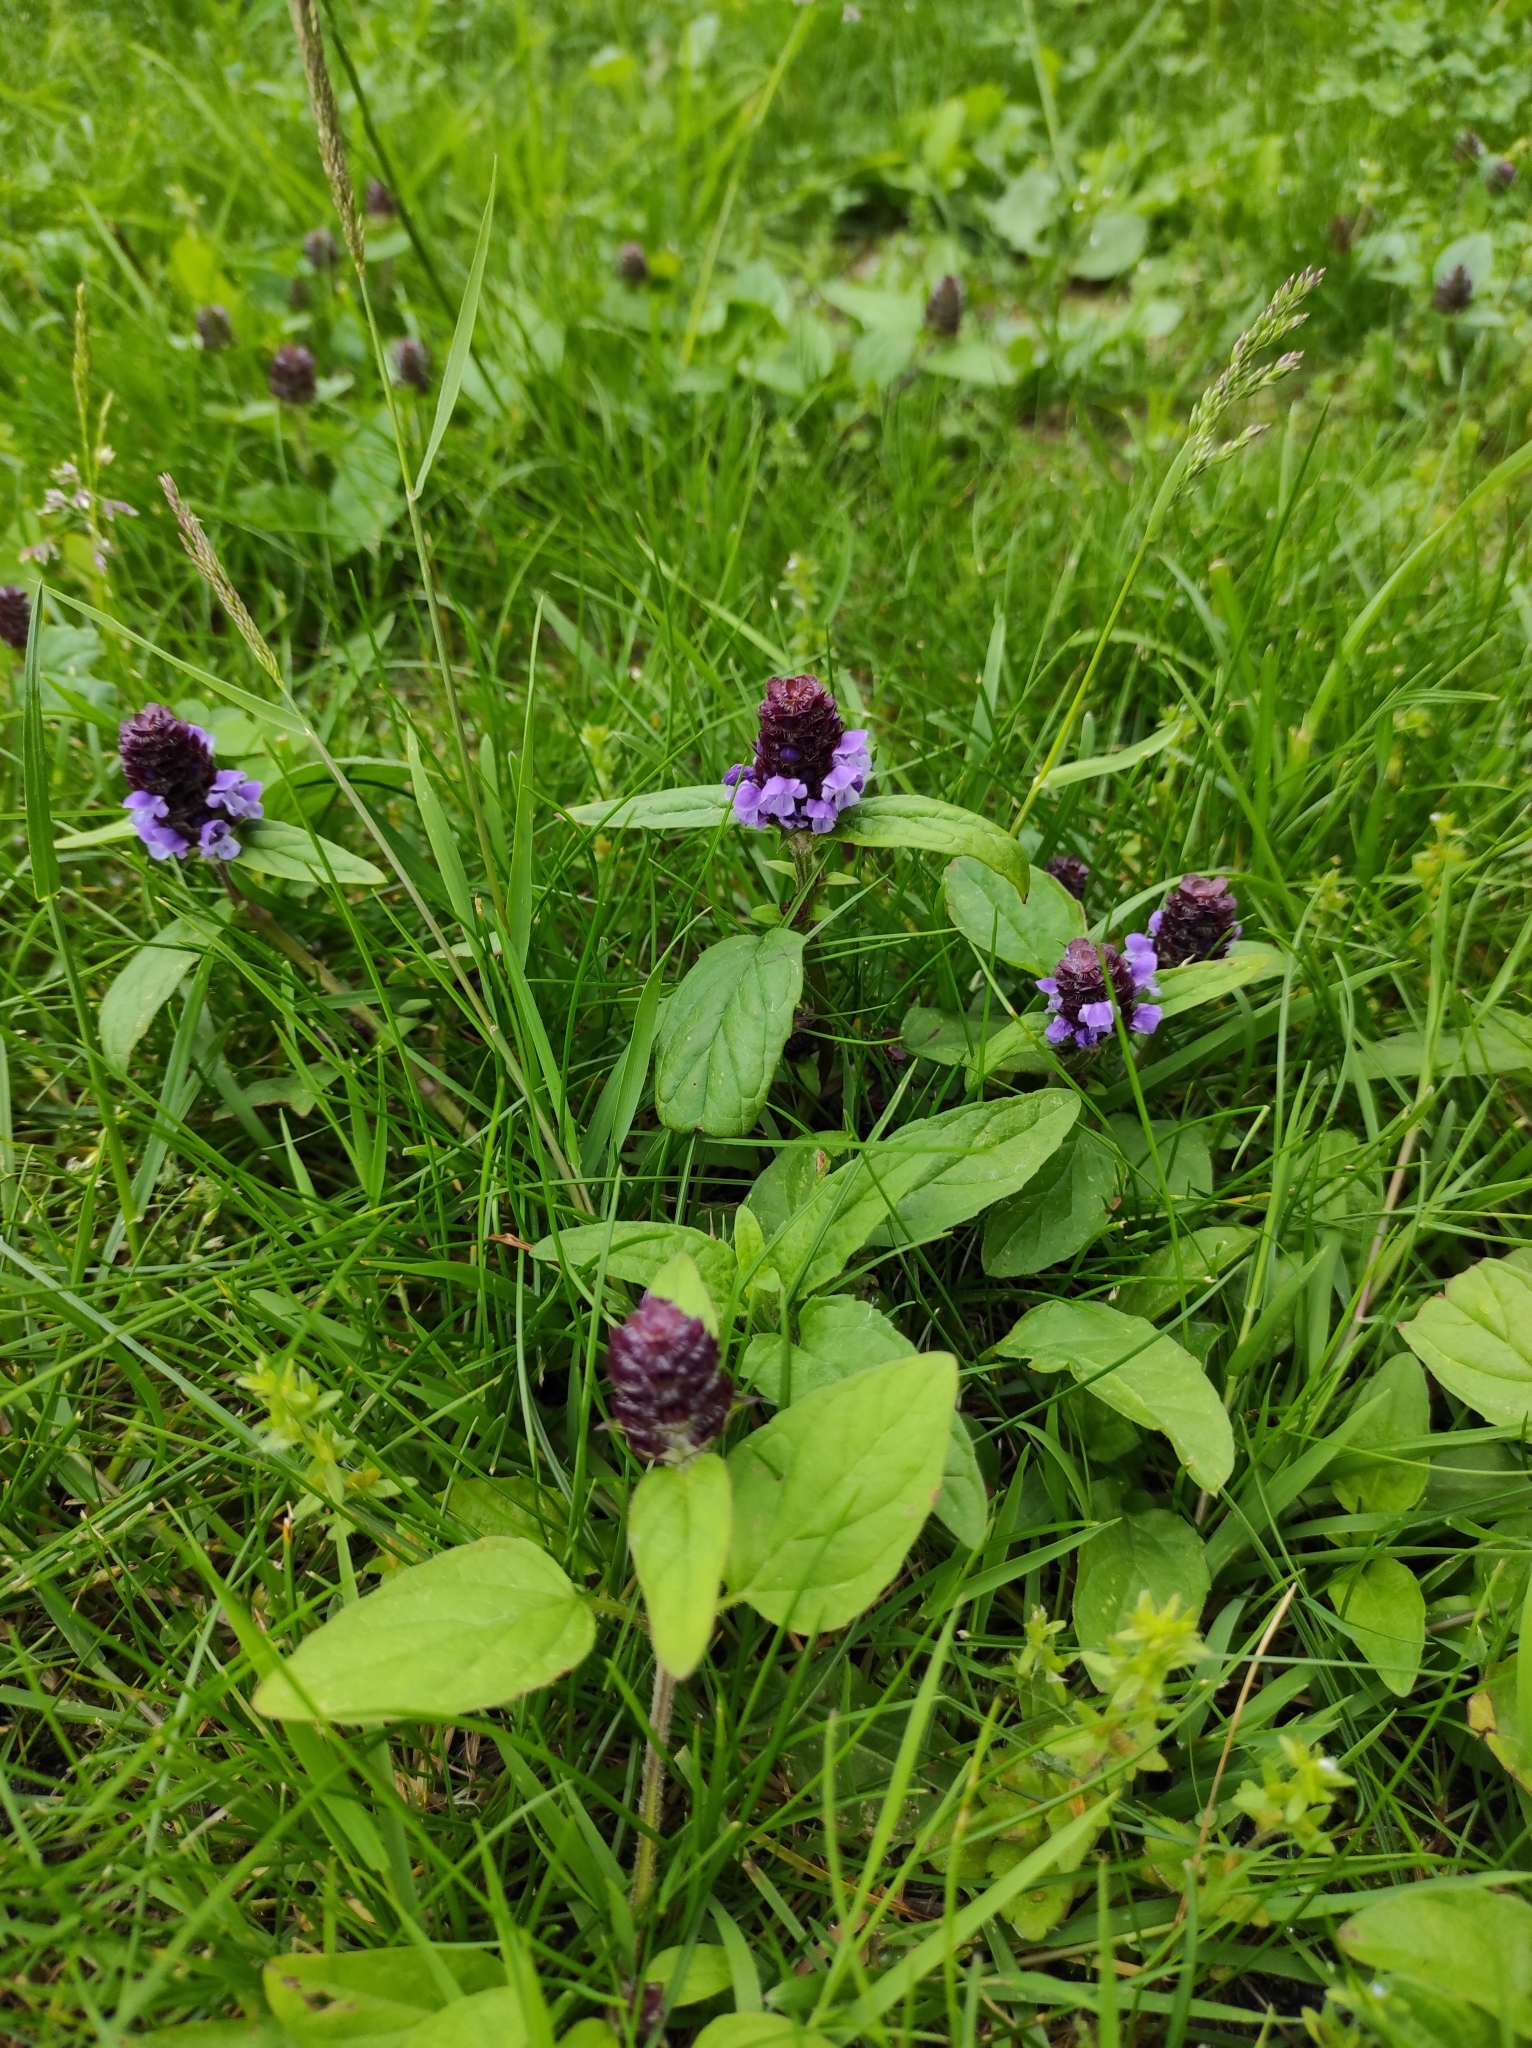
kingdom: Plantae
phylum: Tracheophyta
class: Magnoliopsida
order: Lamiales
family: Lamiaceae
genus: Prunella
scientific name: Prunella vulgaris
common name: Heal-all
